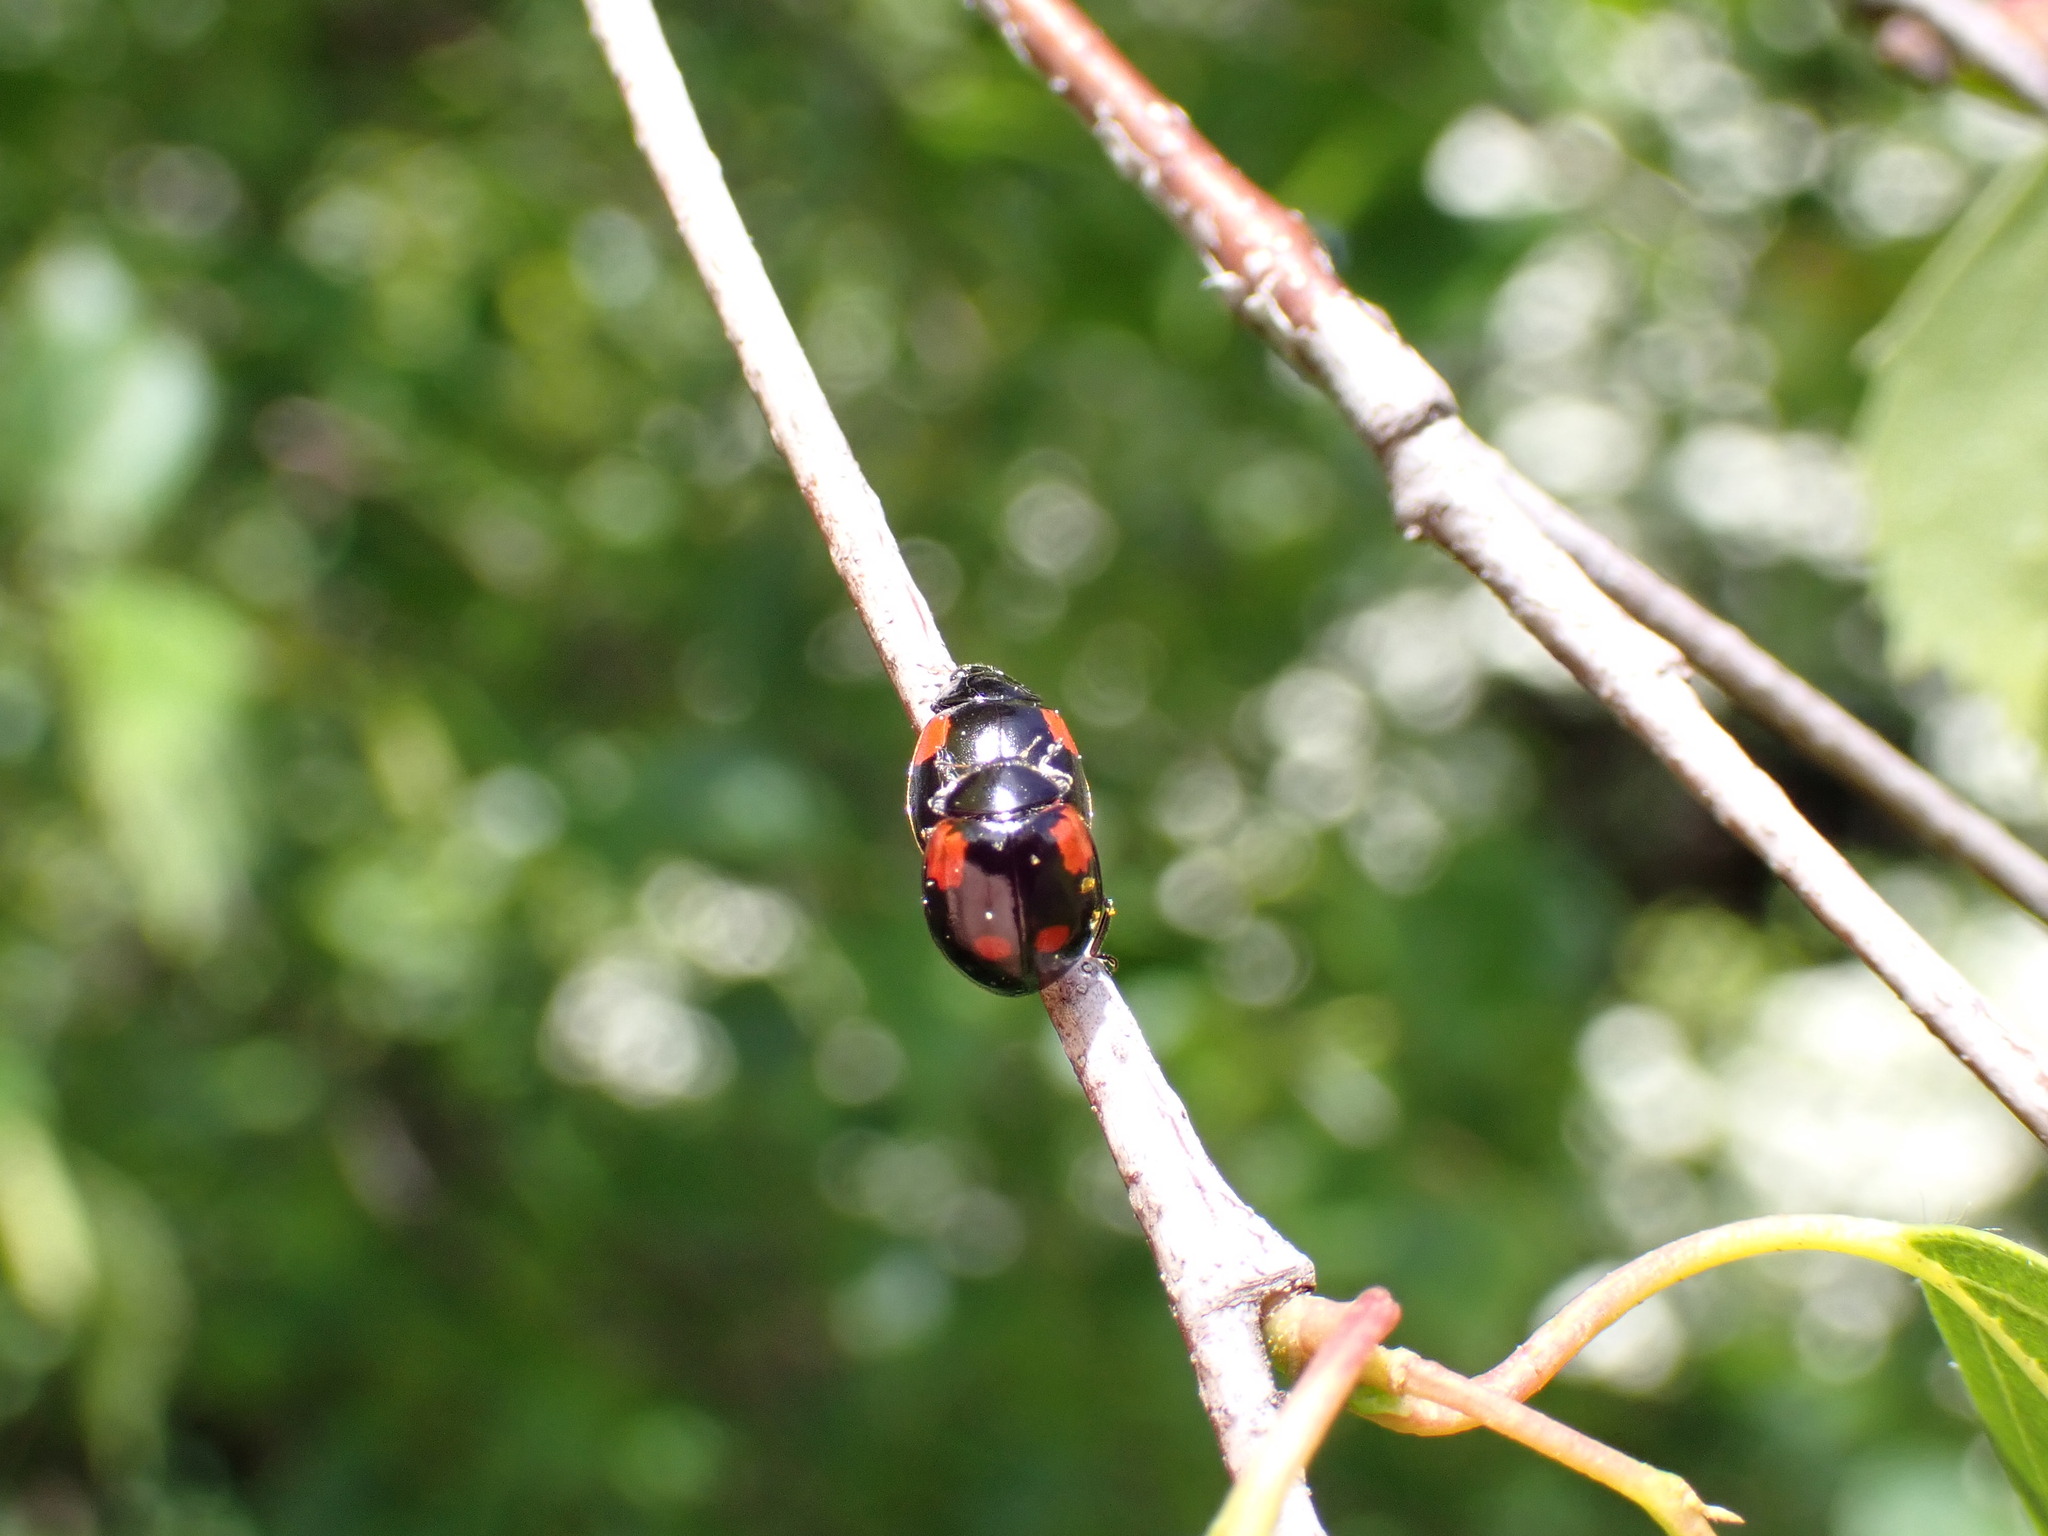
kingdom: Animalia
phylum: Arthropoda
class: Insecta
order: Coleoptera
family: Coccinellidae
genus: Adalia
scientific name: Adalia bipunctata
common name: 2-spot ladybird
